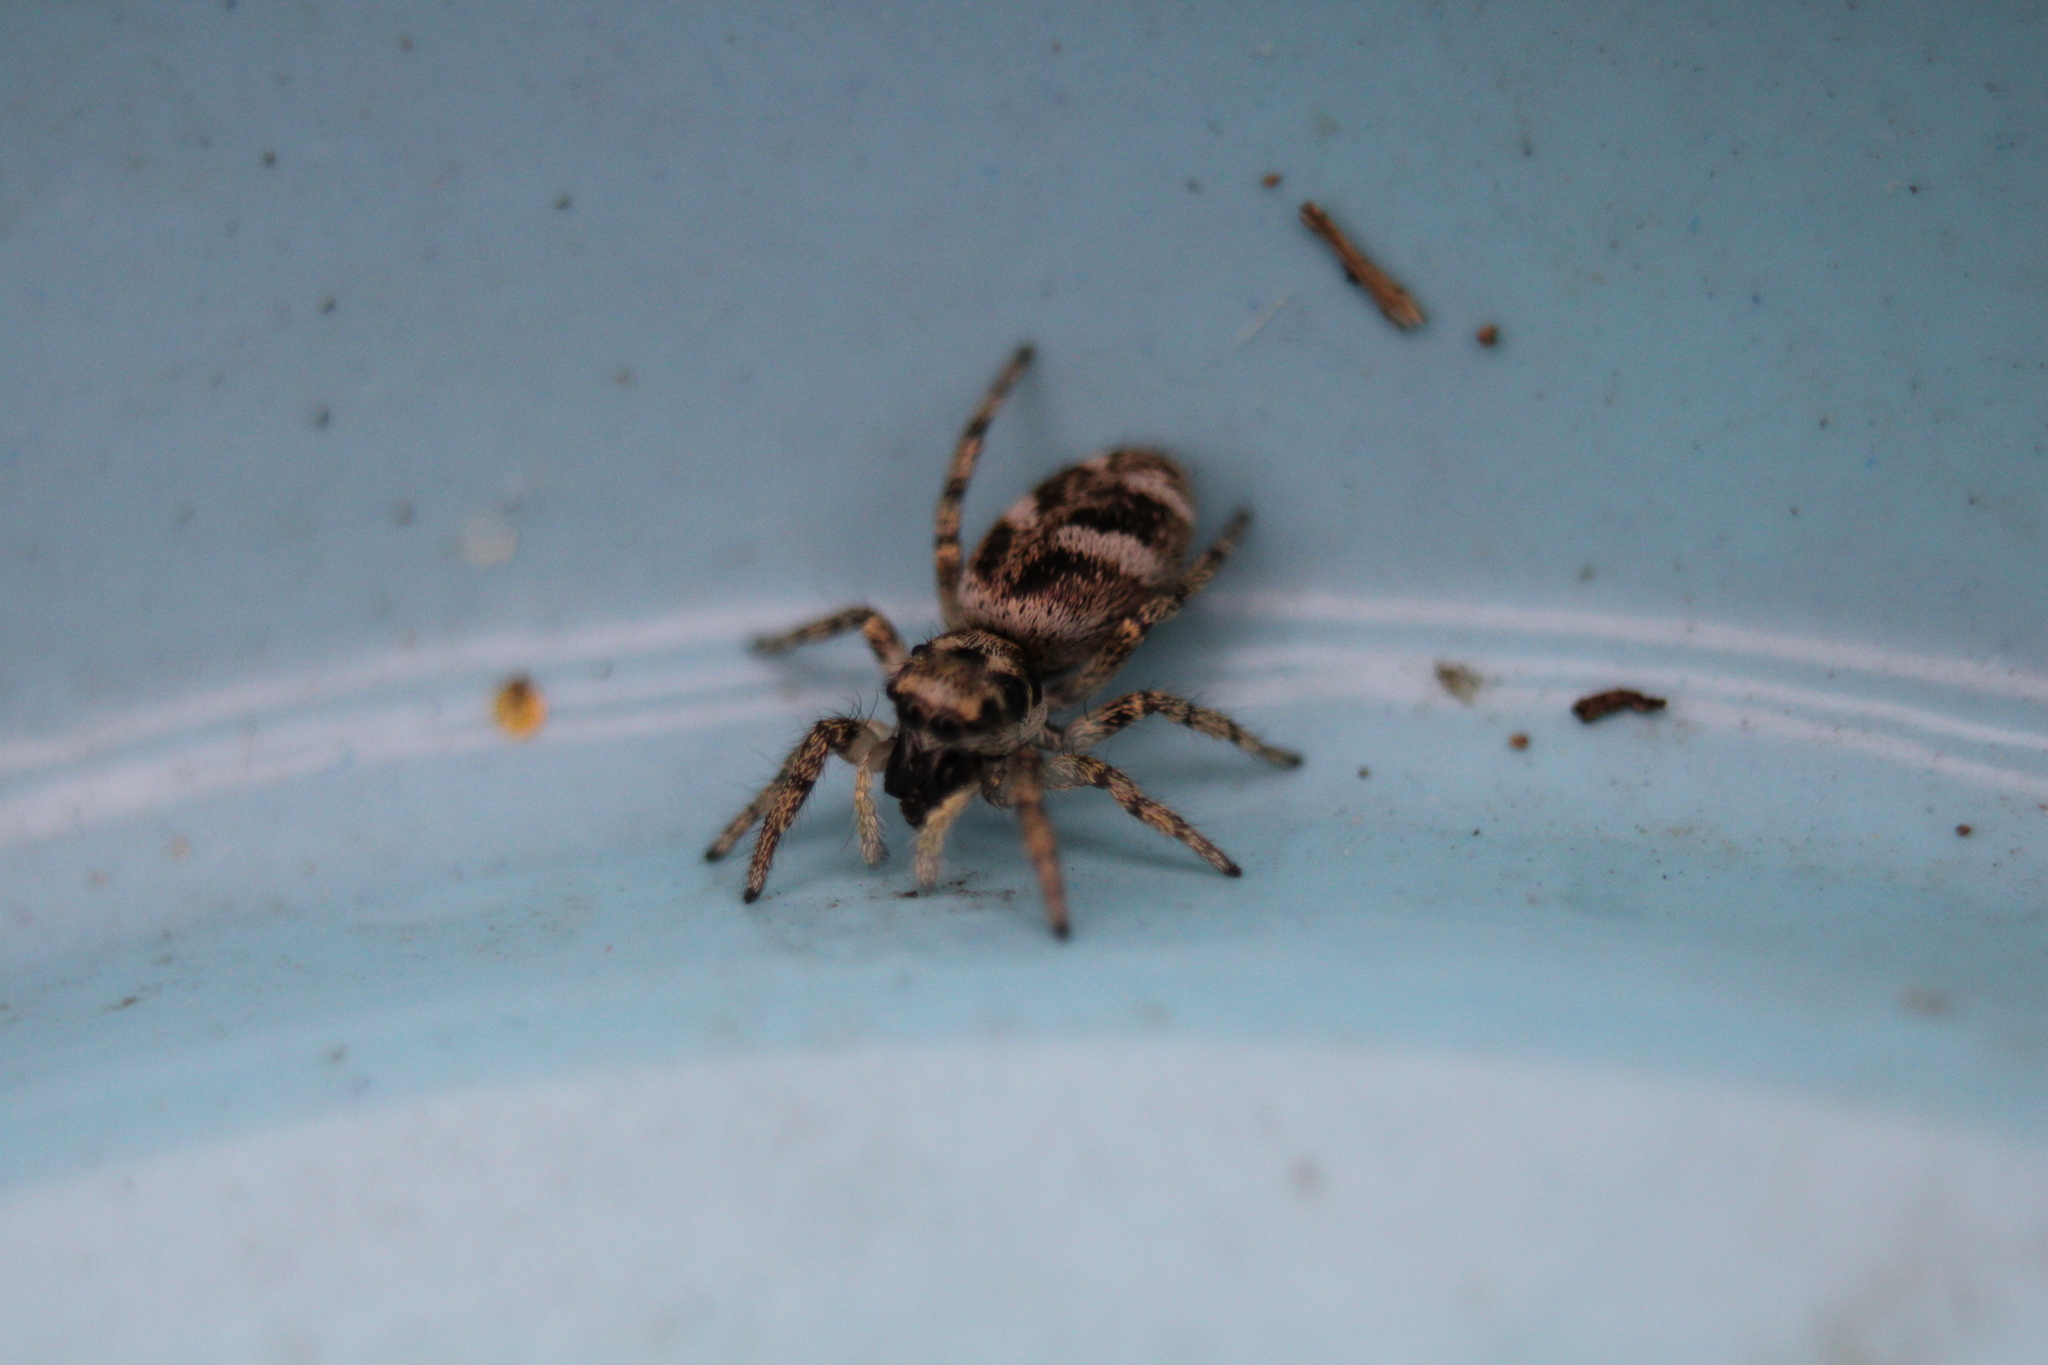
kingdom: Animalia
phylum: Arthropoda
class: Arachnida
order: Araneae
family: Salticidae
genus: Salticus
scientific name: Salticus scenicus
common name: Zebra jumper
